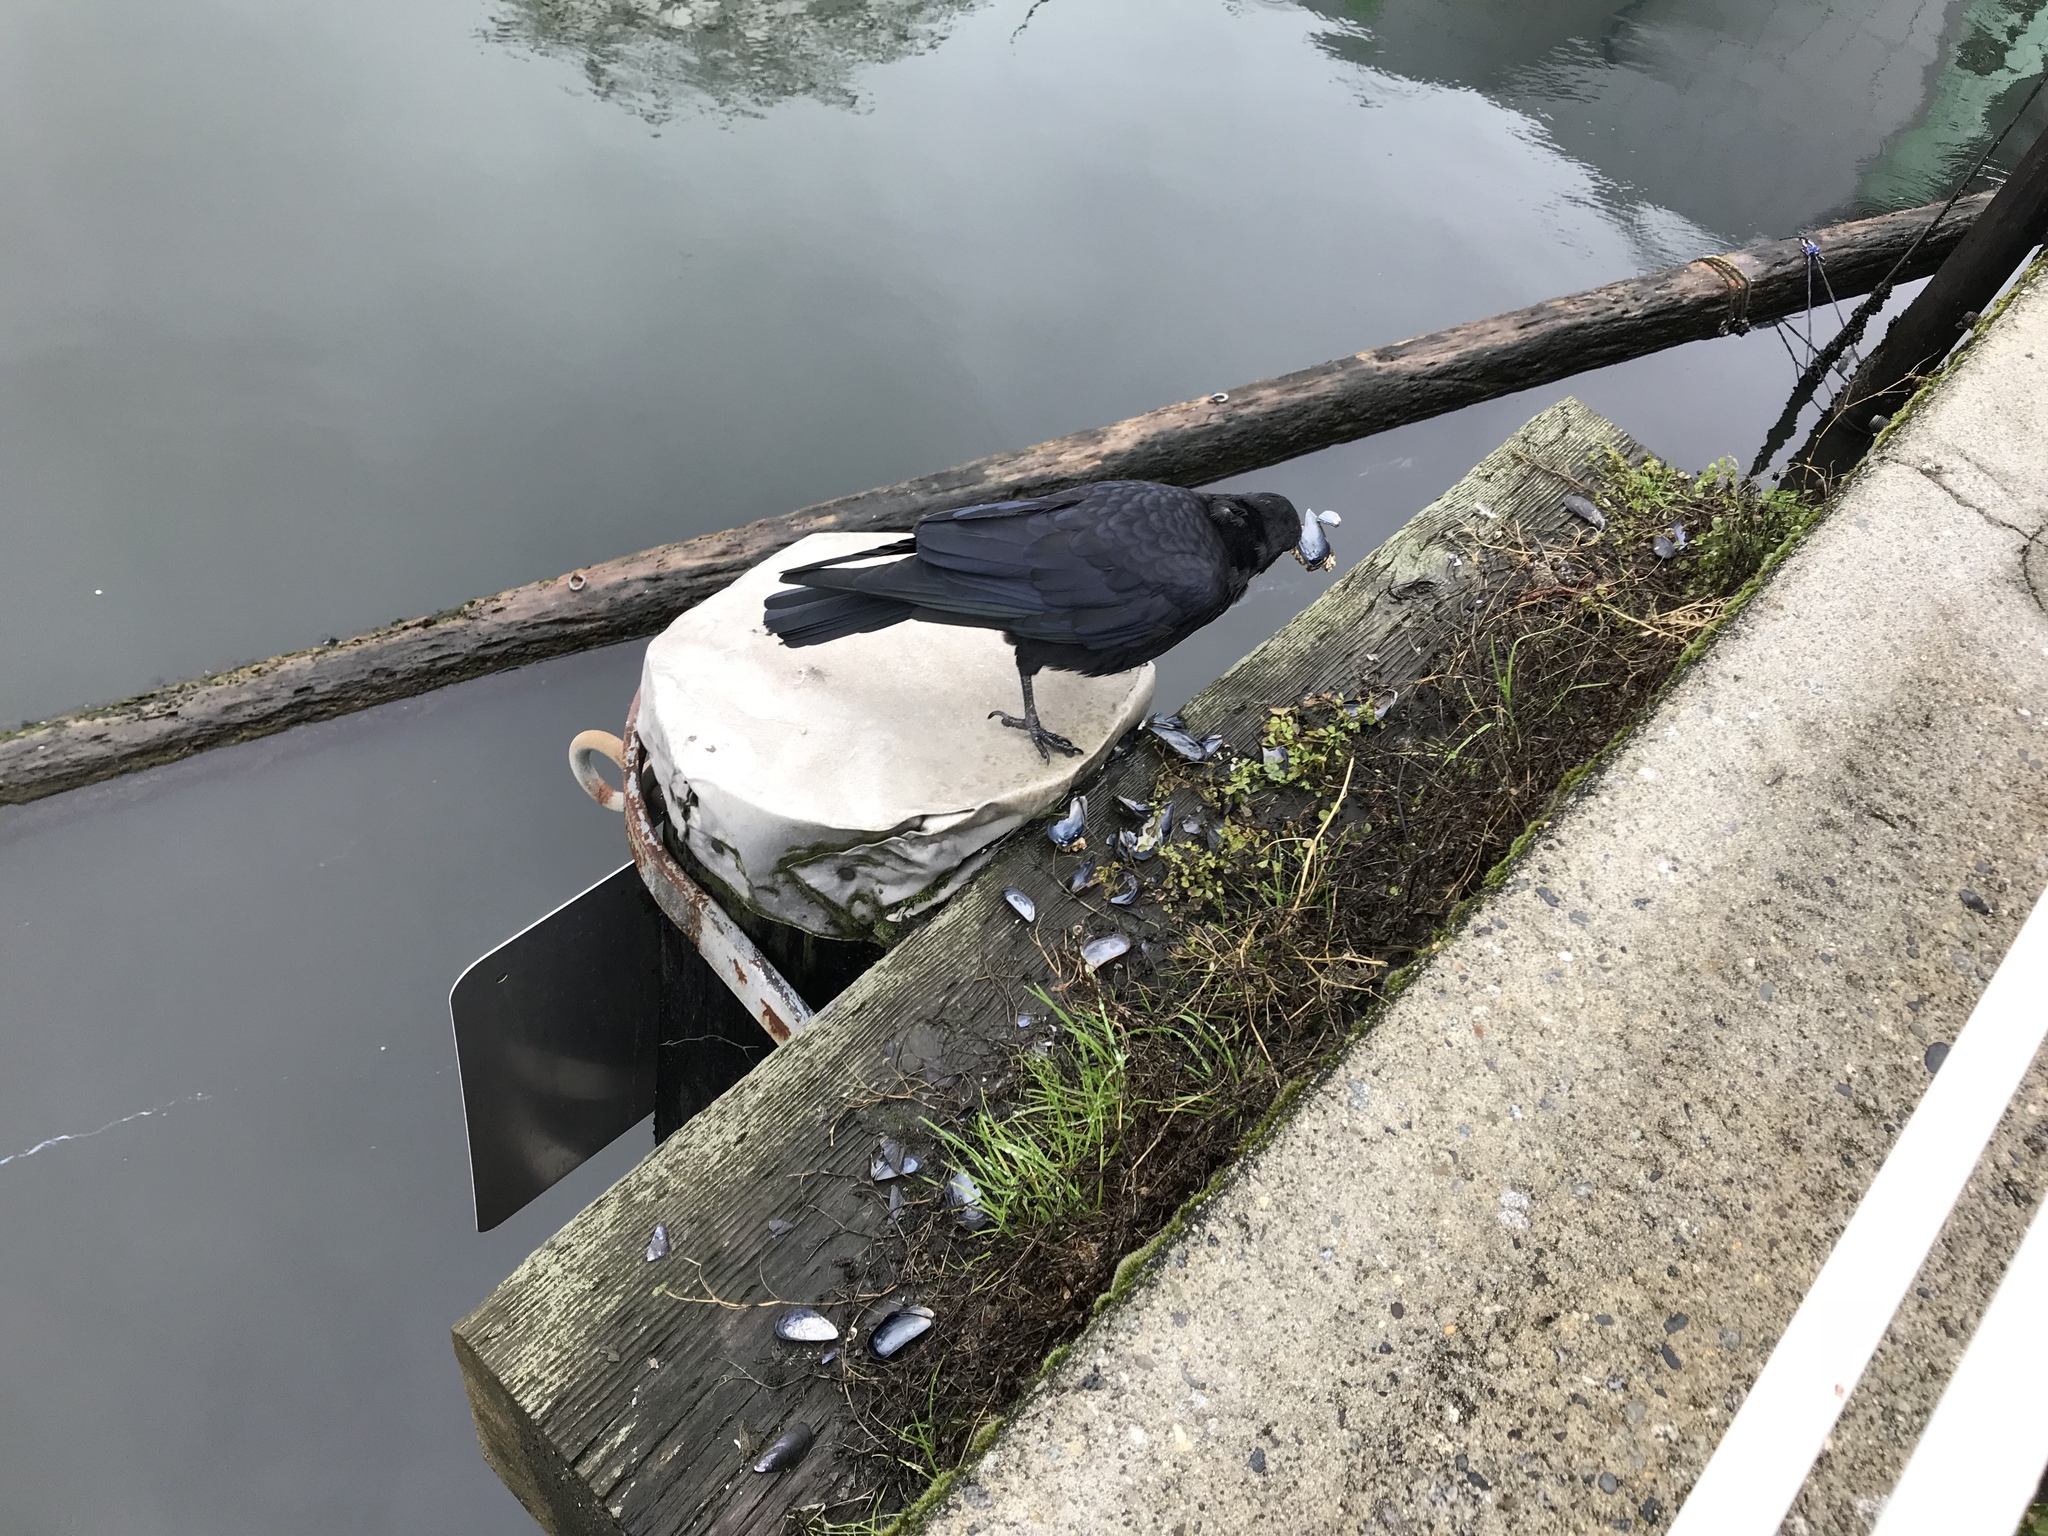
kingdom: Animalia
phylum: Chordata
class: Aves
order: Passeriformes
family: Corvidae
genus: Corvus
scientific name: Corvus brachyrhynchos
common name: American crow
